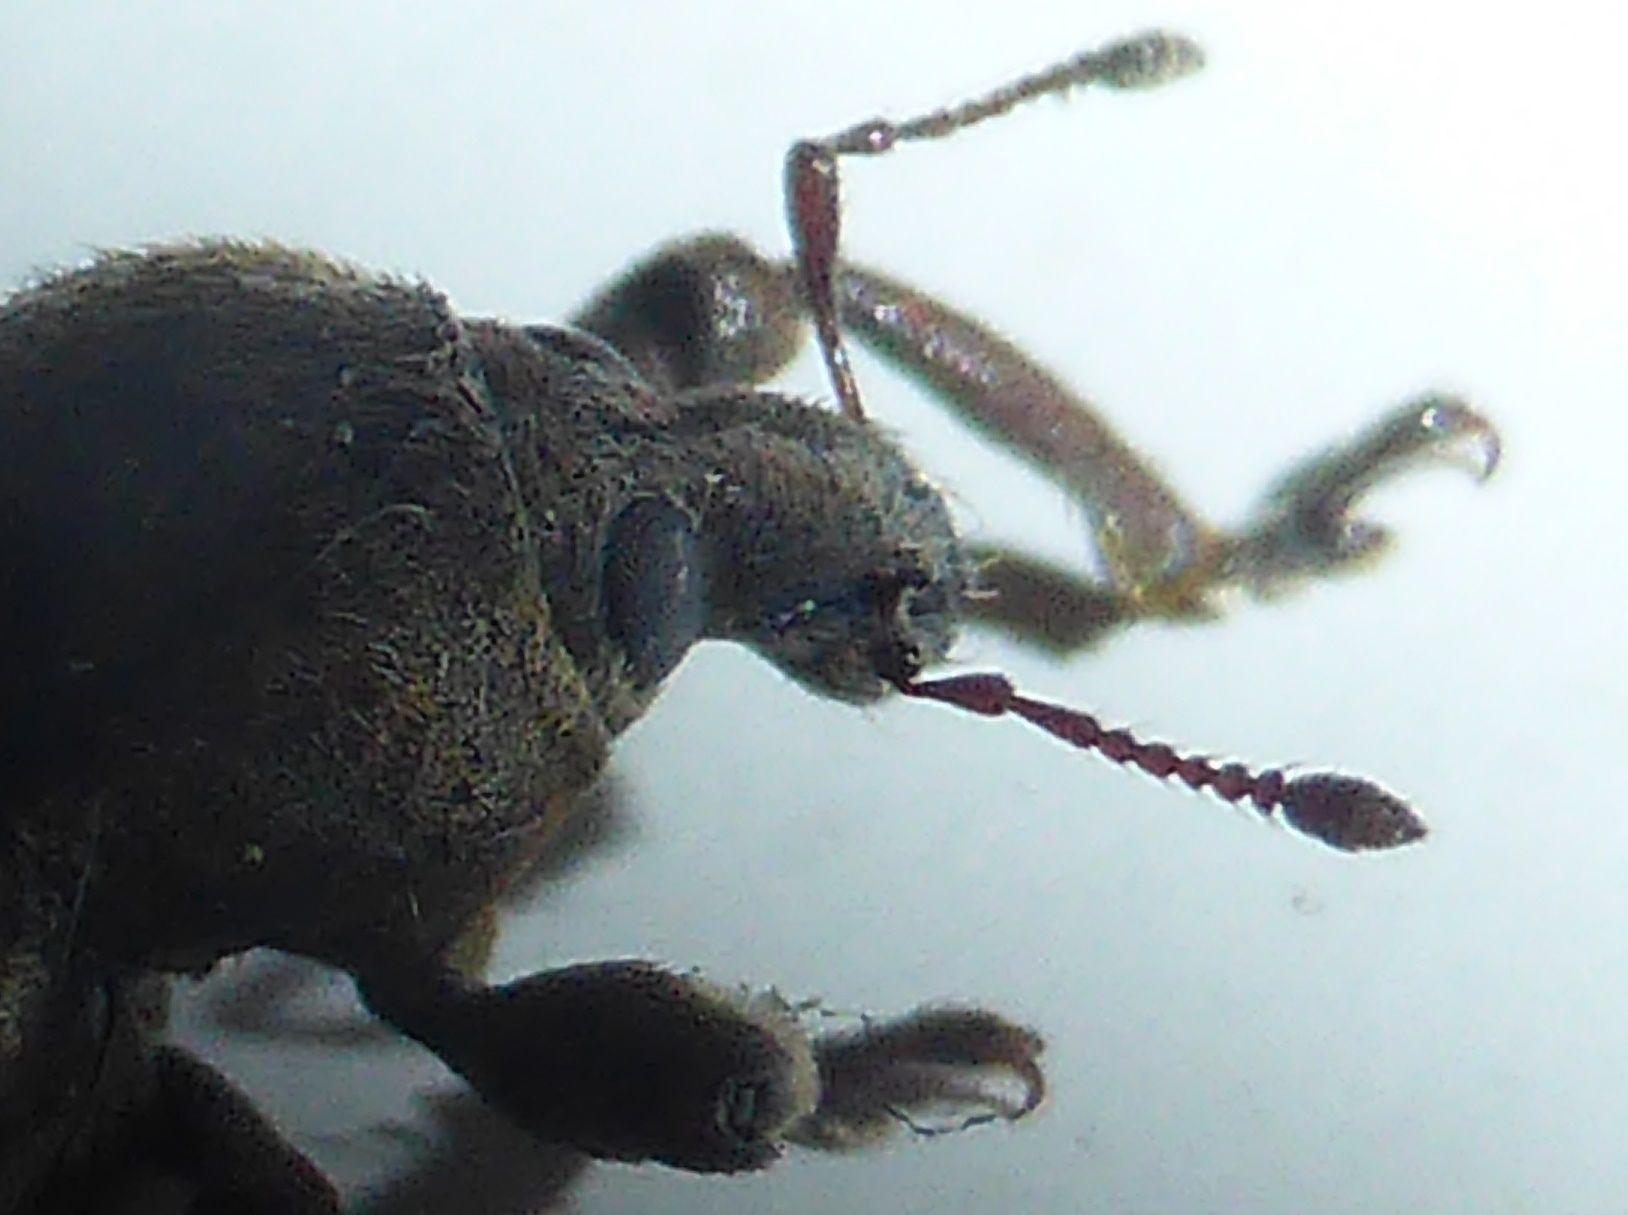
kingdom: Animalia
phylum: Arthropoda
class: Insecta
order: Coleoptera
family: Curculionidae
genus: Brachypera
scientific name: Brachypera zoilus
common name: Clover leaf weevil
